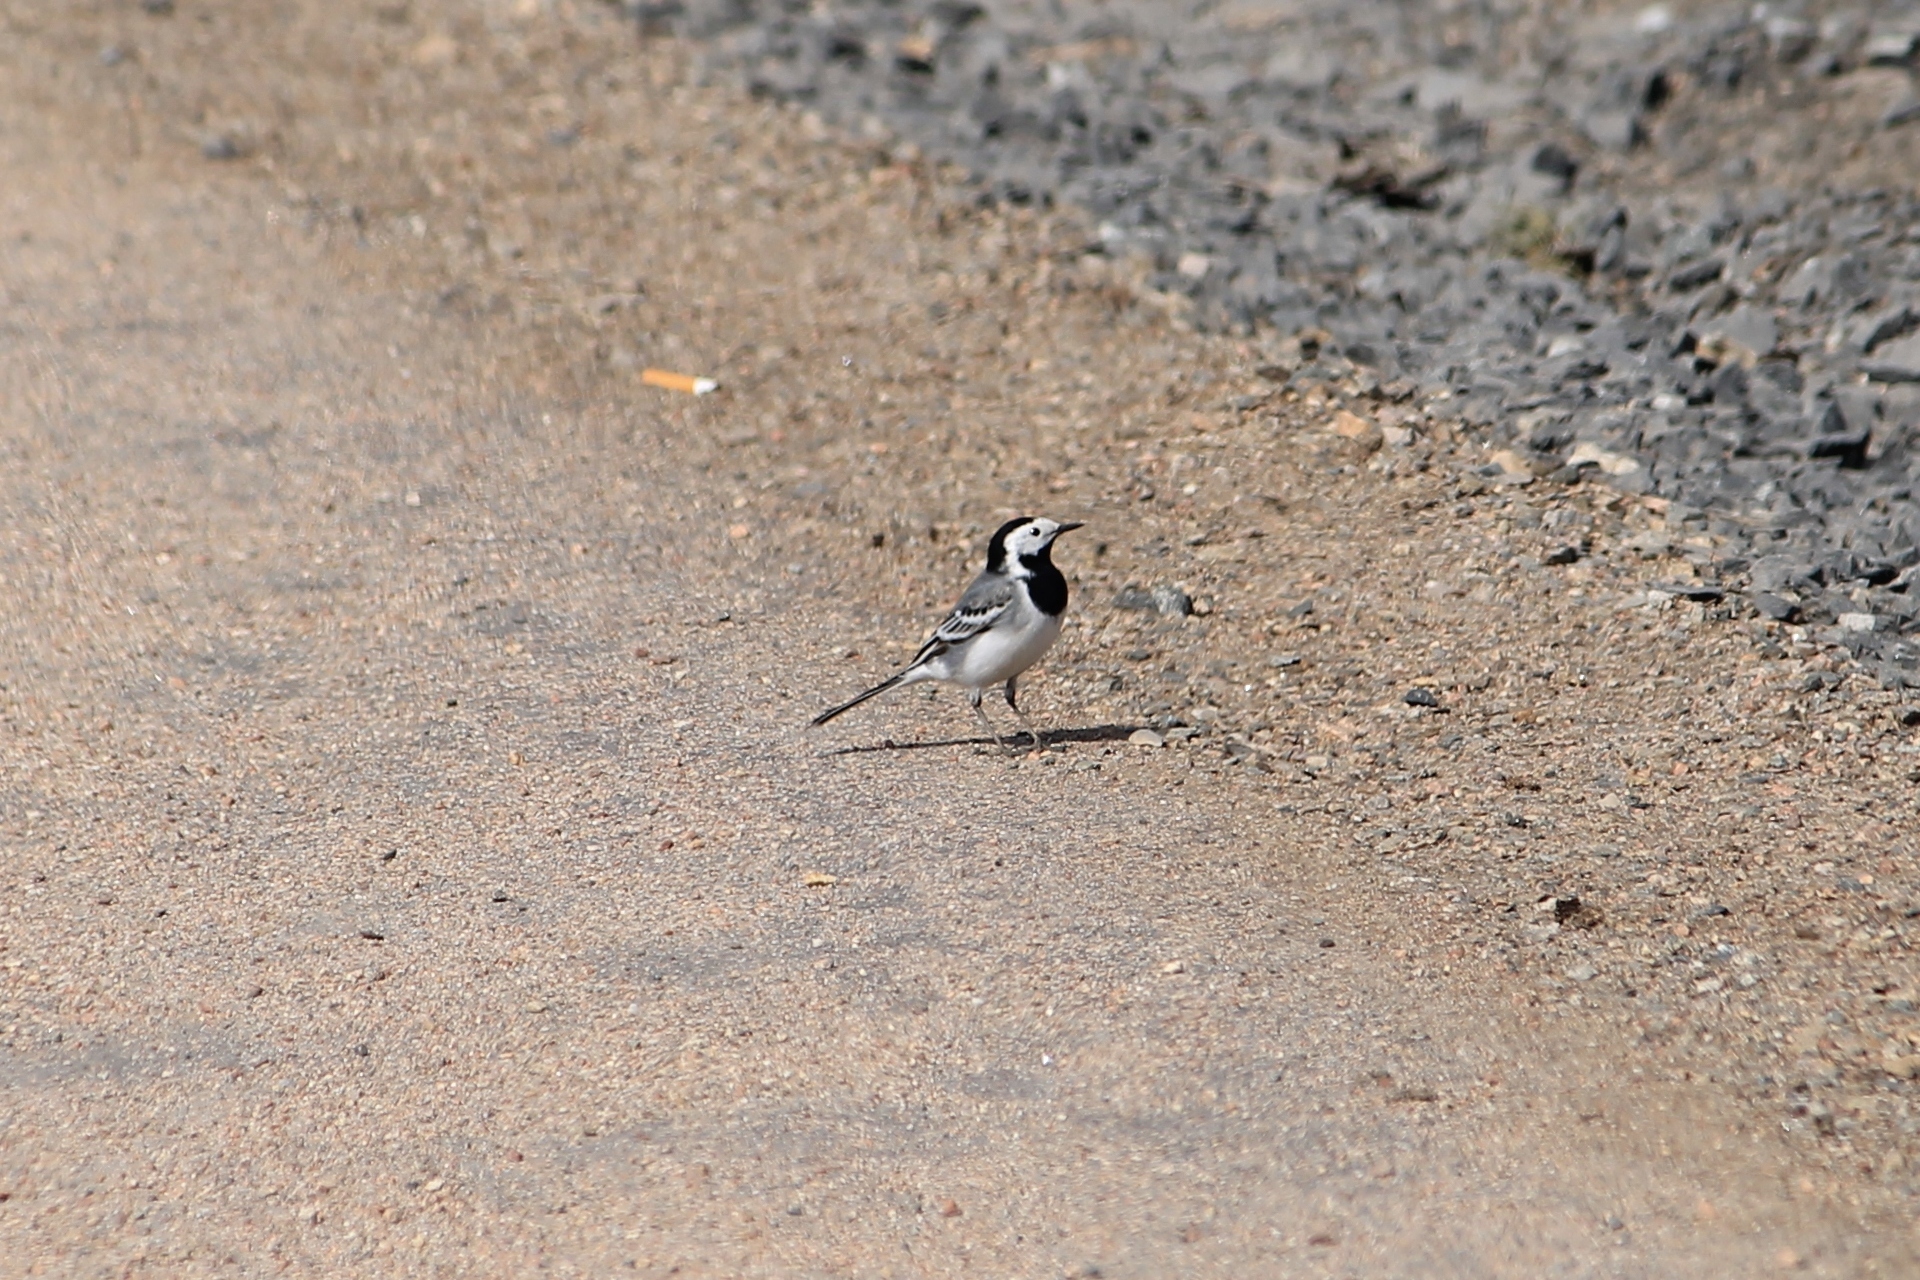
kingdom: Animalia
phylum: Chordata
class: Aves
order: Passeriformes
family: Motacillidae
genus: Motacilla
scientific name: Motacilla alba
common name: White wagtail
